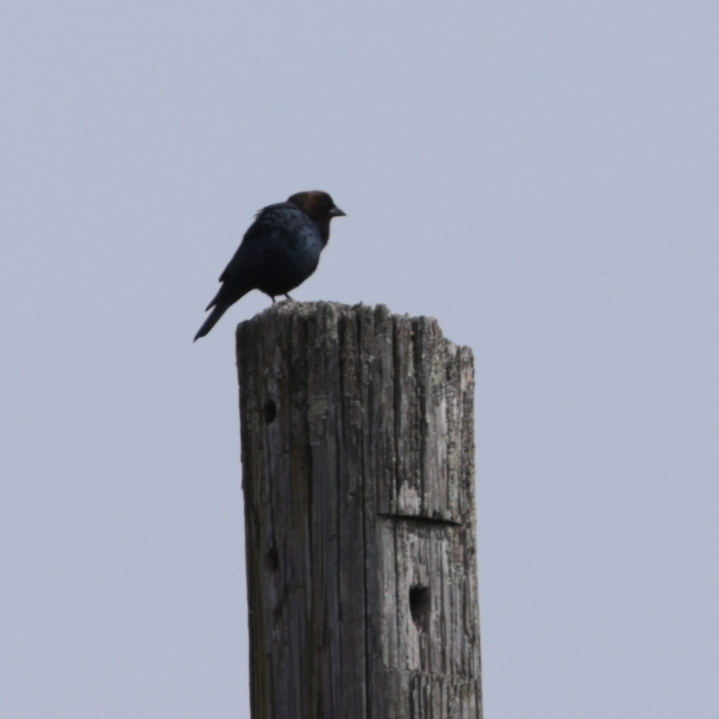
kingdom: Animalia
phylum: Chordata
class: Aves
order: Passeriformes
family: Icteridae
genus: Molothrus
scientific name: Molothrus ater
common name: Brown-headed cowbird
